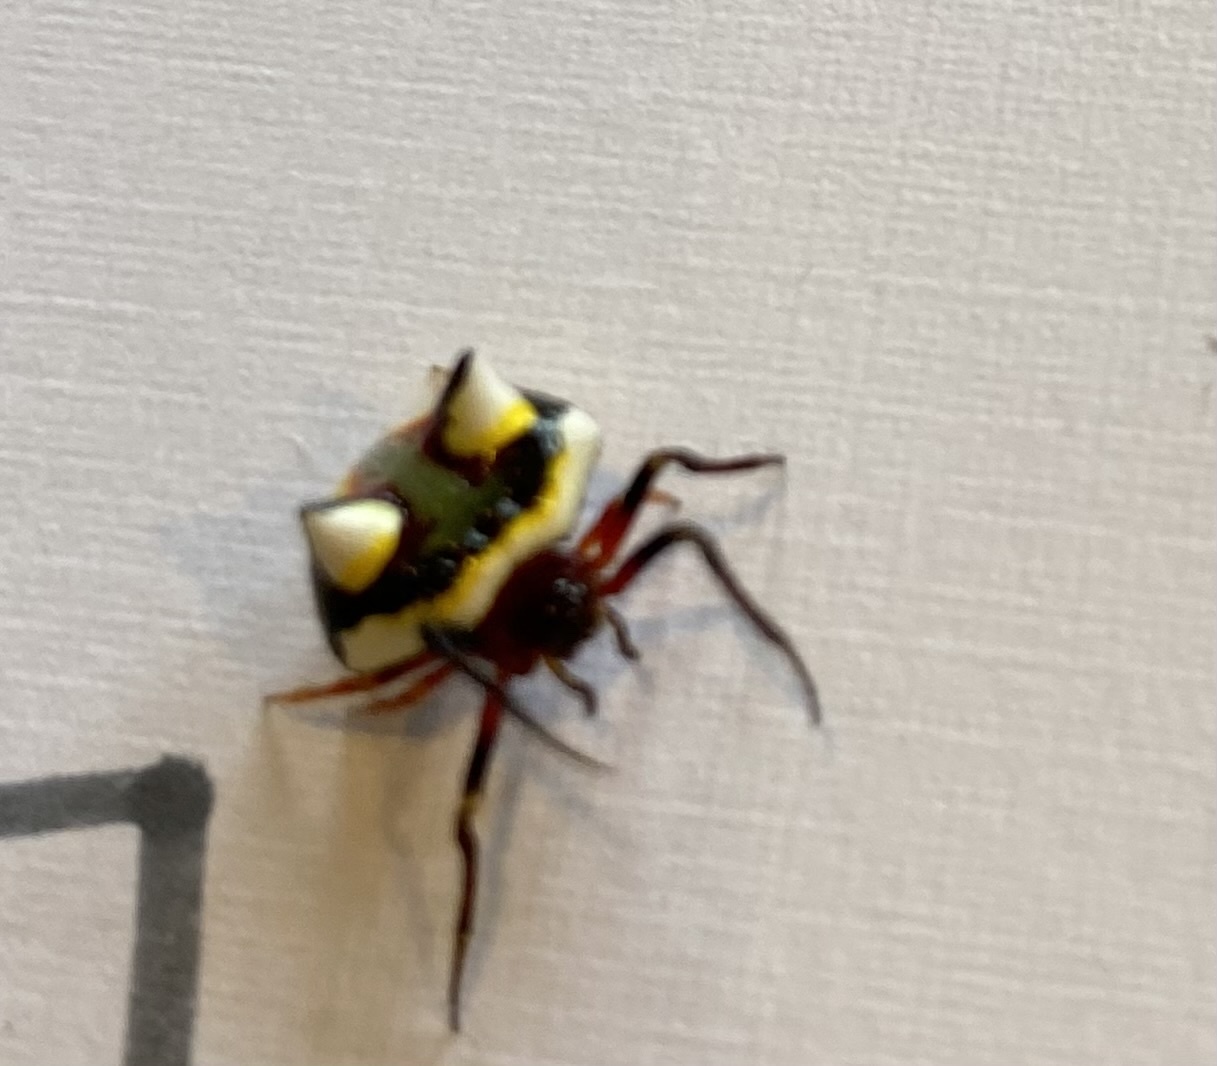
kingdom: Animalia
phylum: Arthropoda
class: Arachnida
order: Araneae
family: Araneidae
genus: Poecilopachys
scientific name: Poecilopachys australasia
